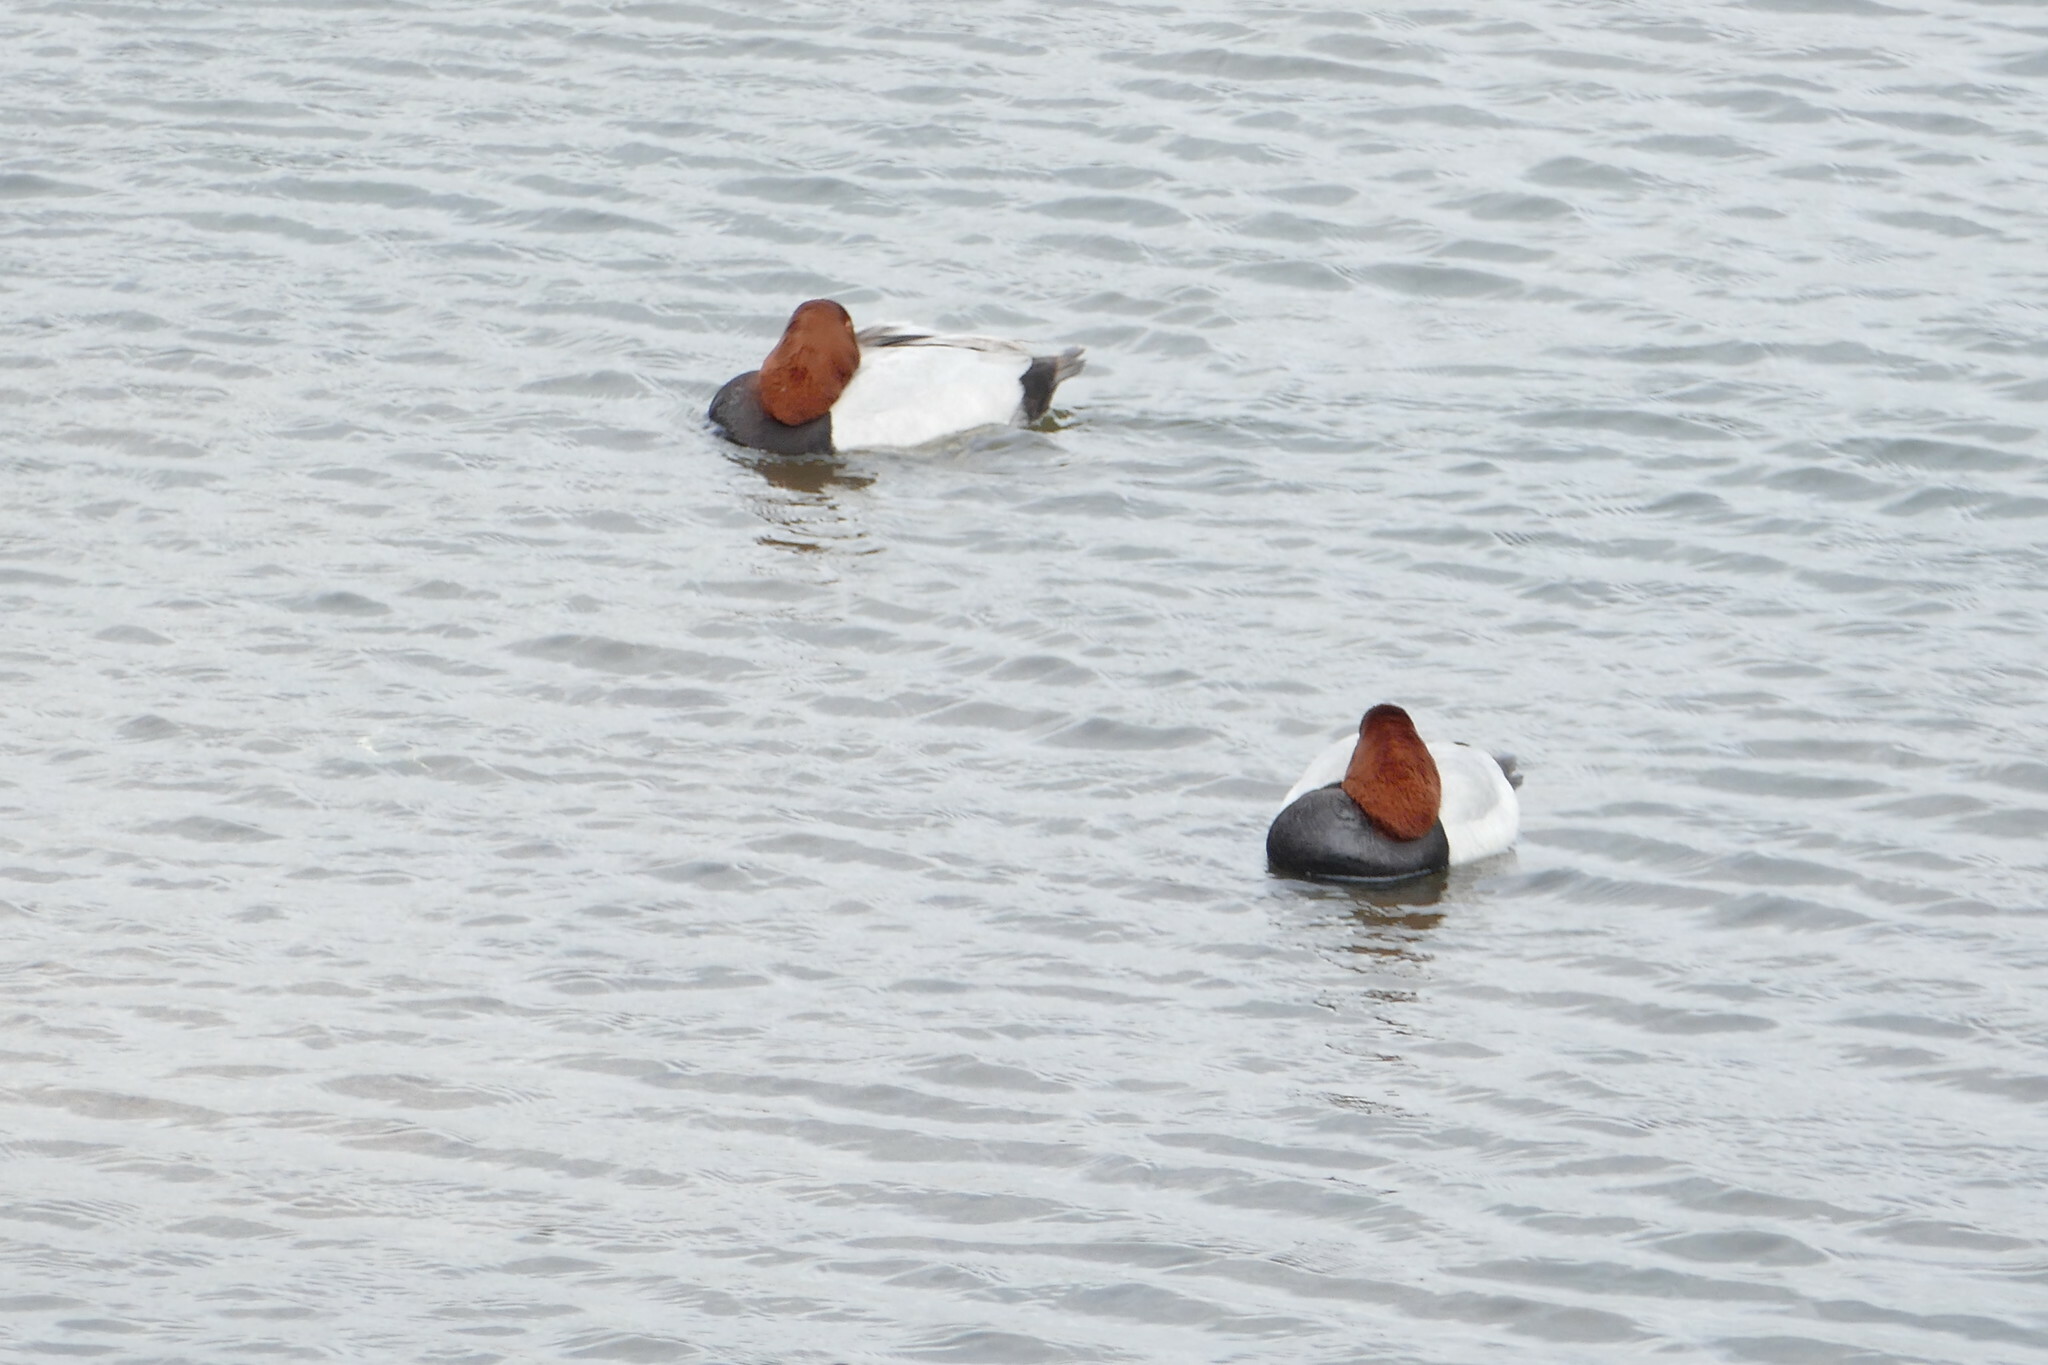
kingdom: Animalia
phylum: Chordata
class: Aves
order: Anseriformes
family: Anatidae
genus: Aythya
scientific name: Aythya ferina
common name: Common pochard
